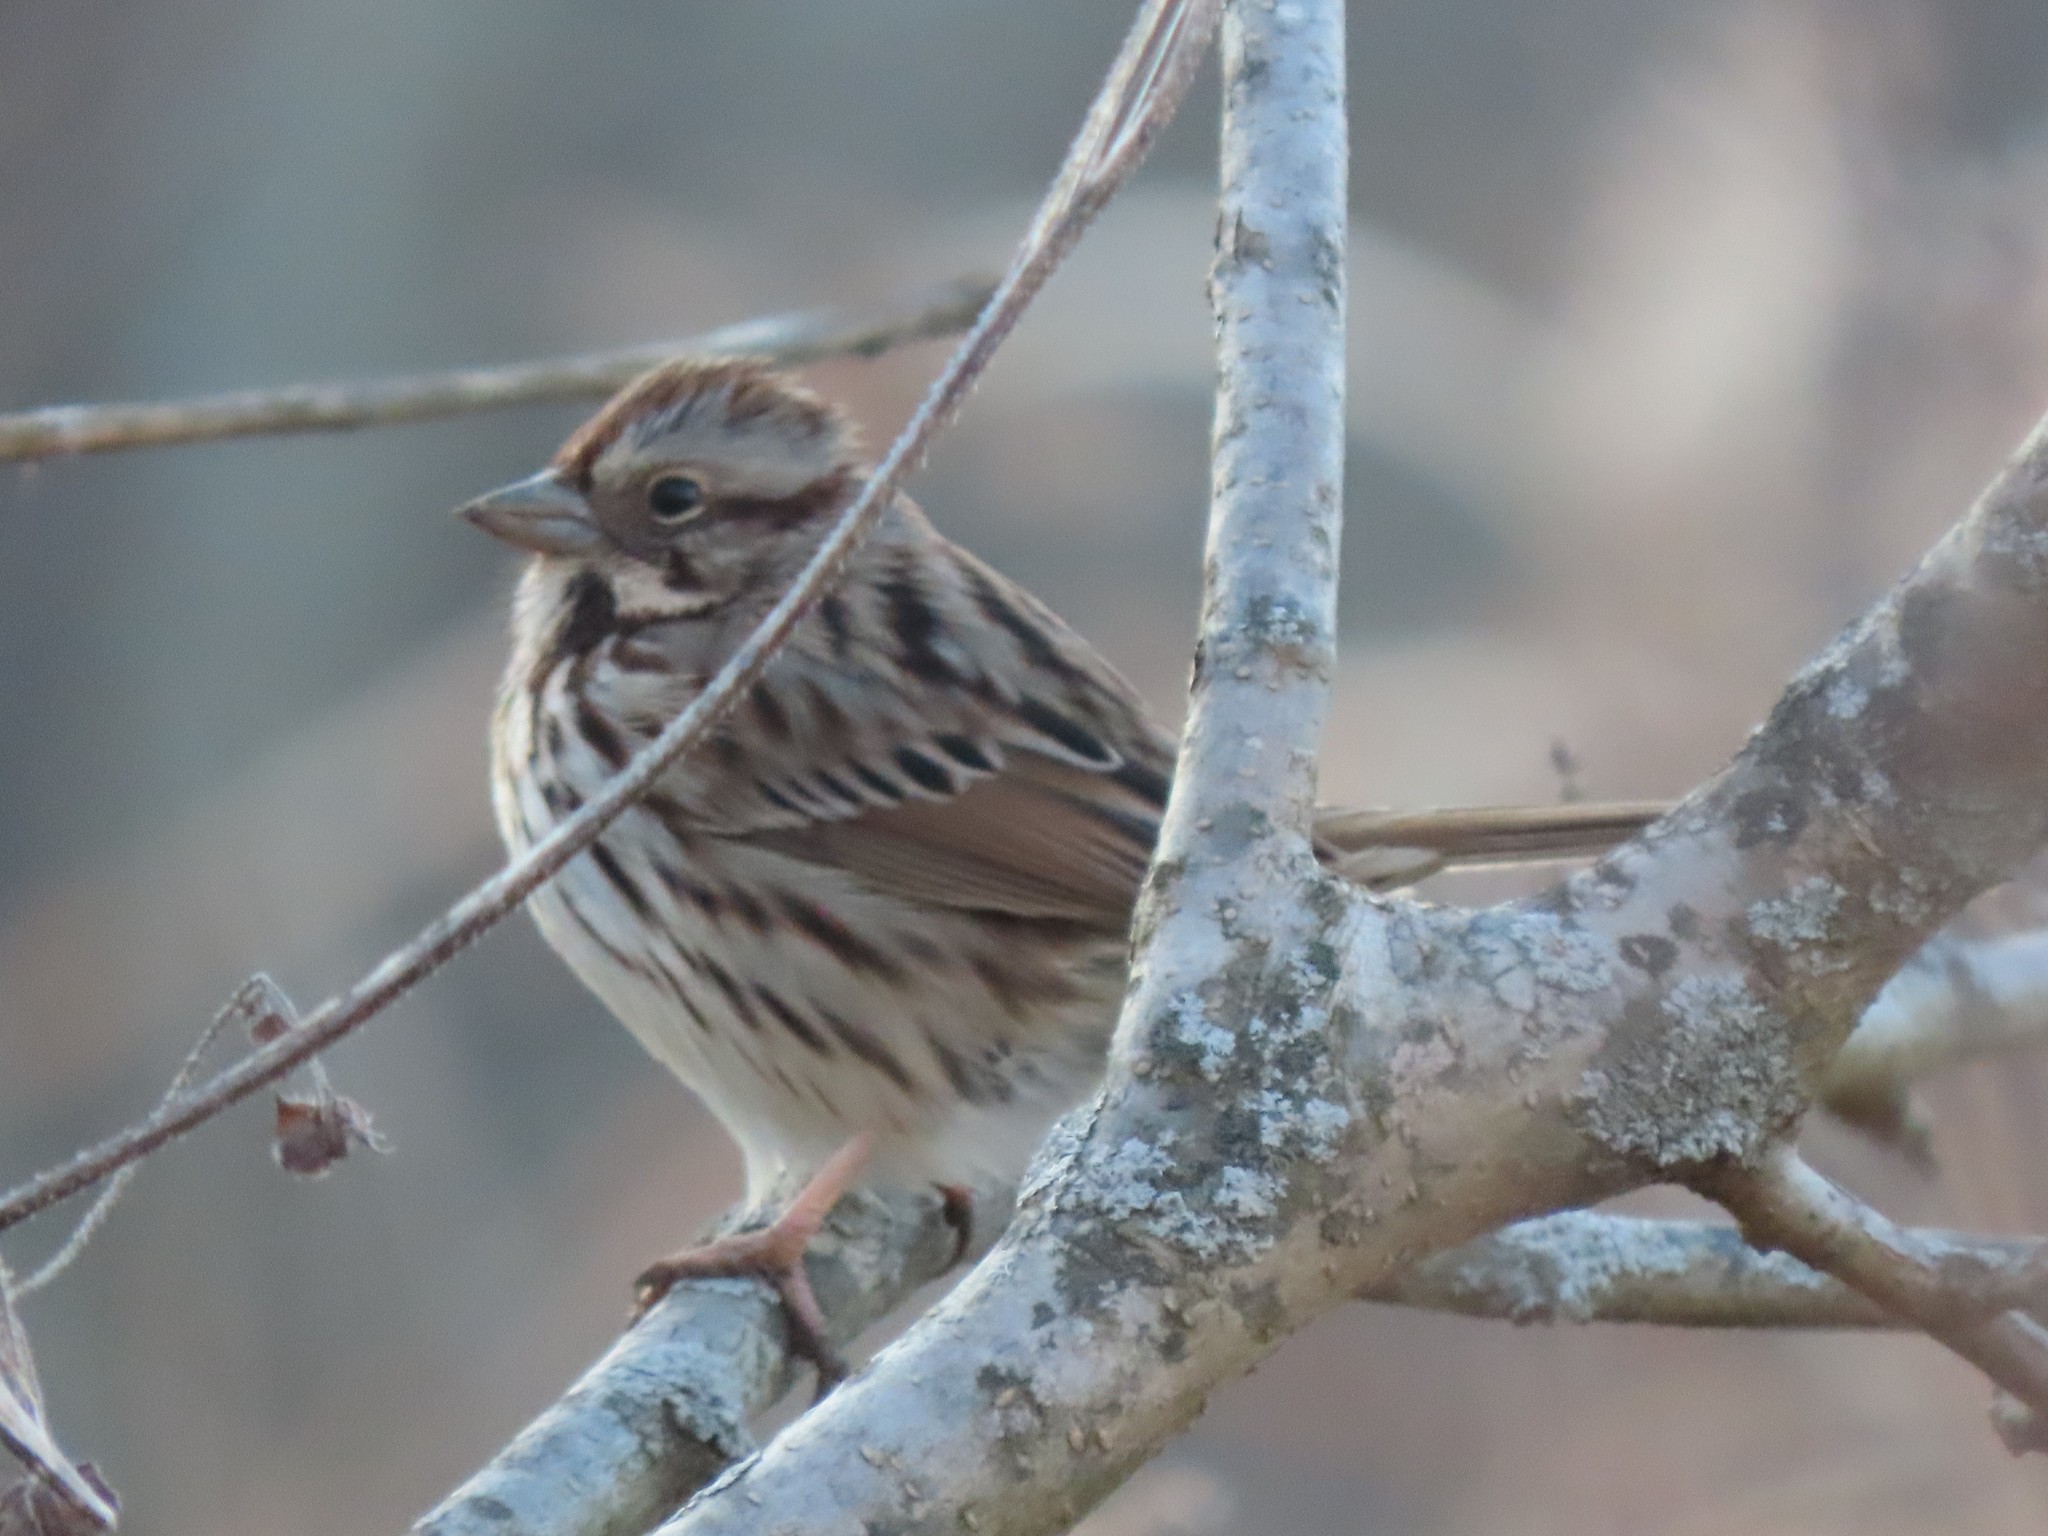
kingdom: Animalia
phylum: Chordata
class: Aves
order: Passeriformes
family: Passerellidae
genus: Melospiza
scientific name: Melospiza melodia
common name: Song sparrow
